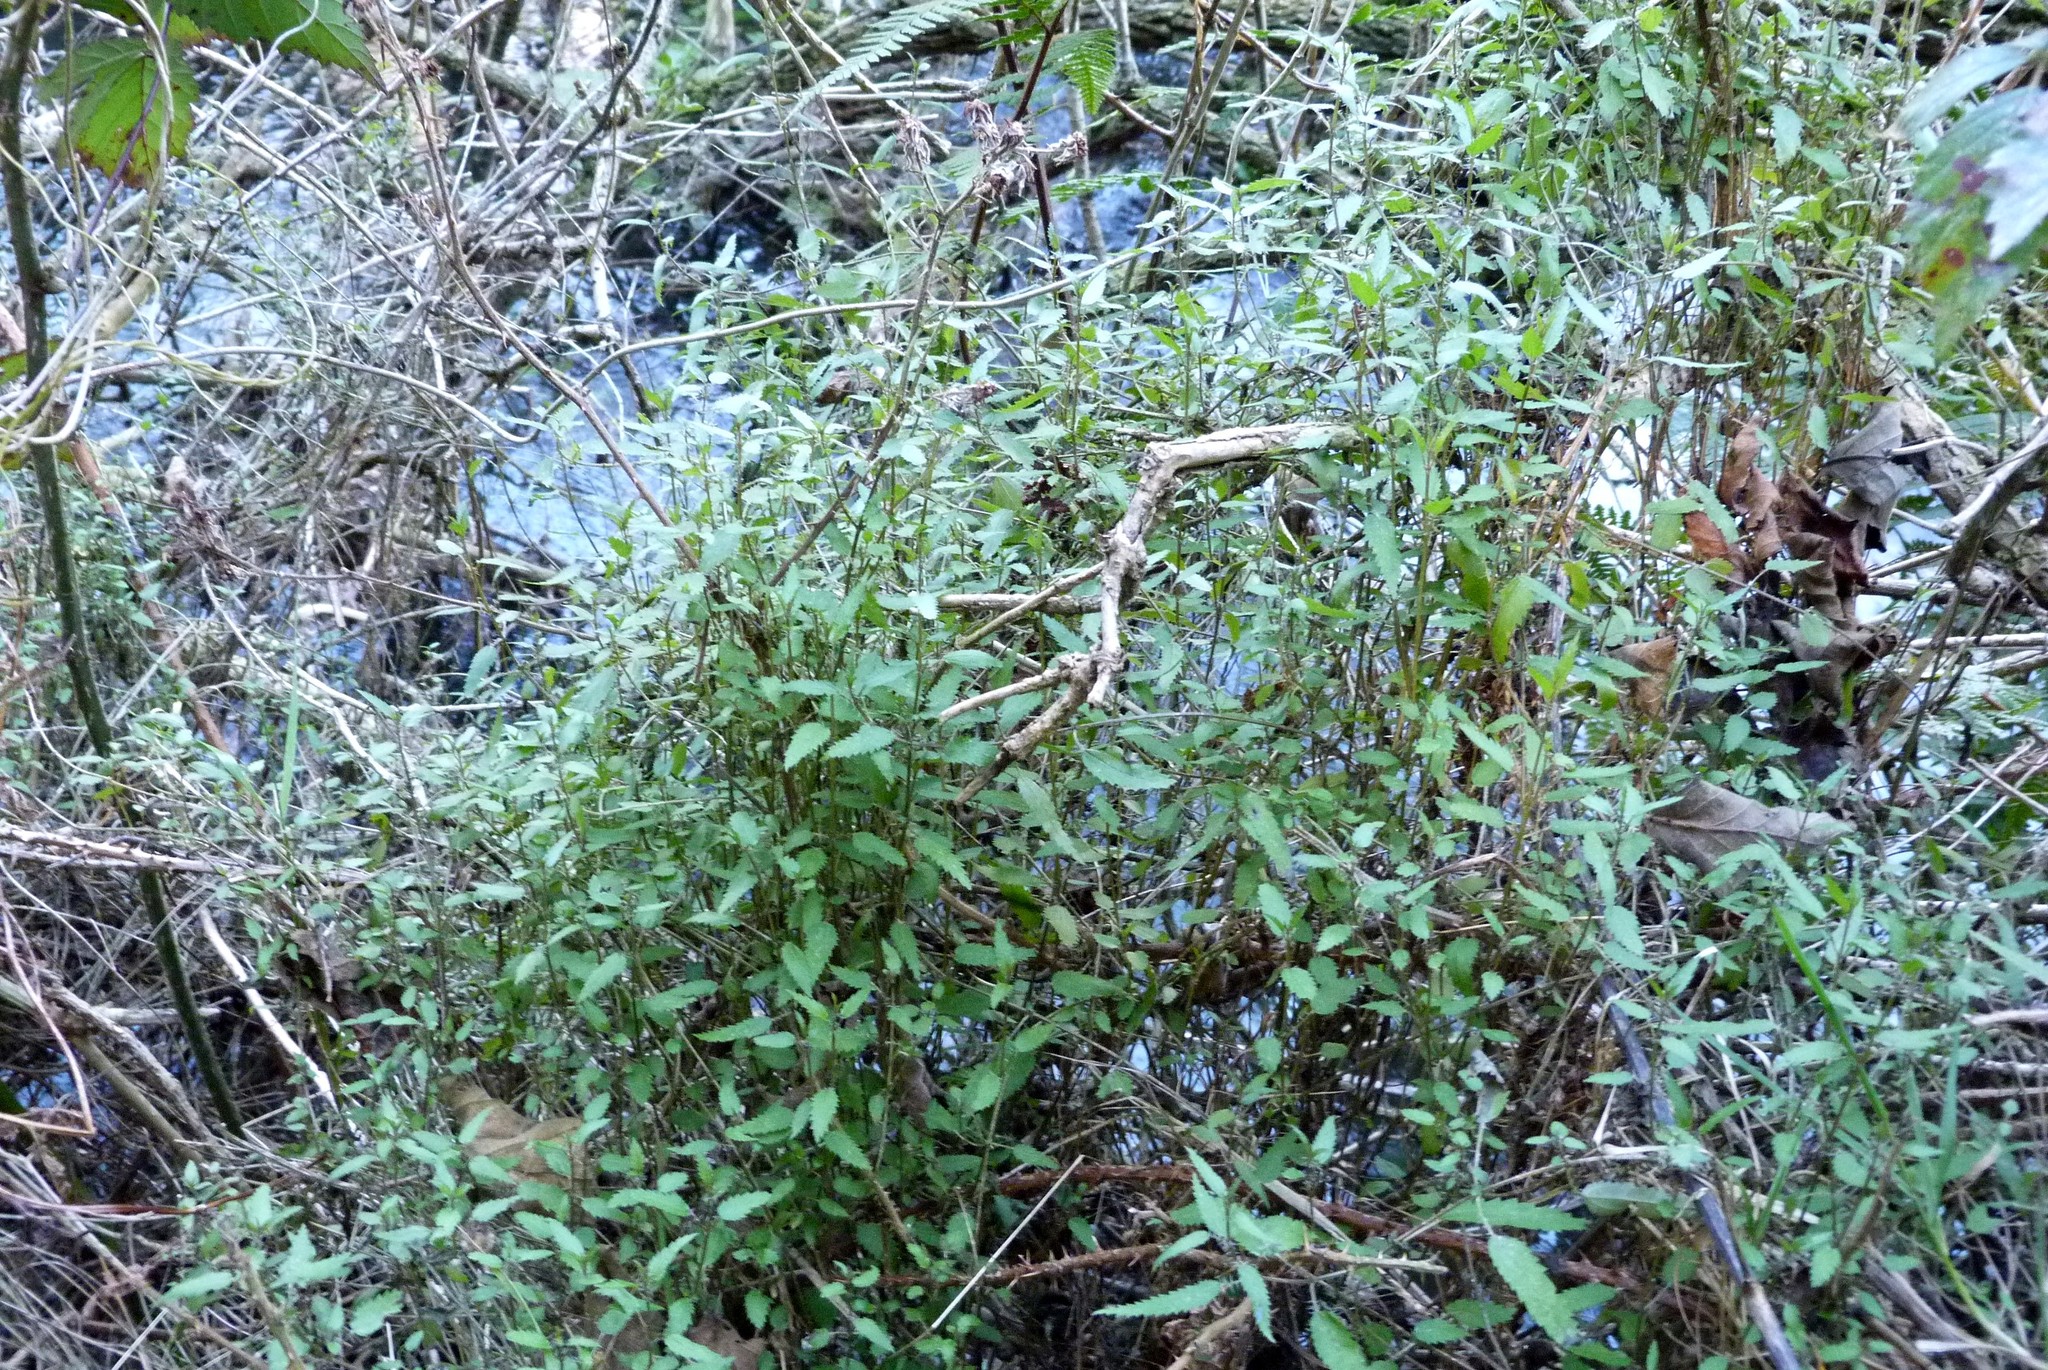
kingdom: Plantae
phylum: Tracheophyta
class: Magnoliopsida
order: Rosales
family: Urticaceae
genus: Urtica
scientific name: Urtica perconfusa
